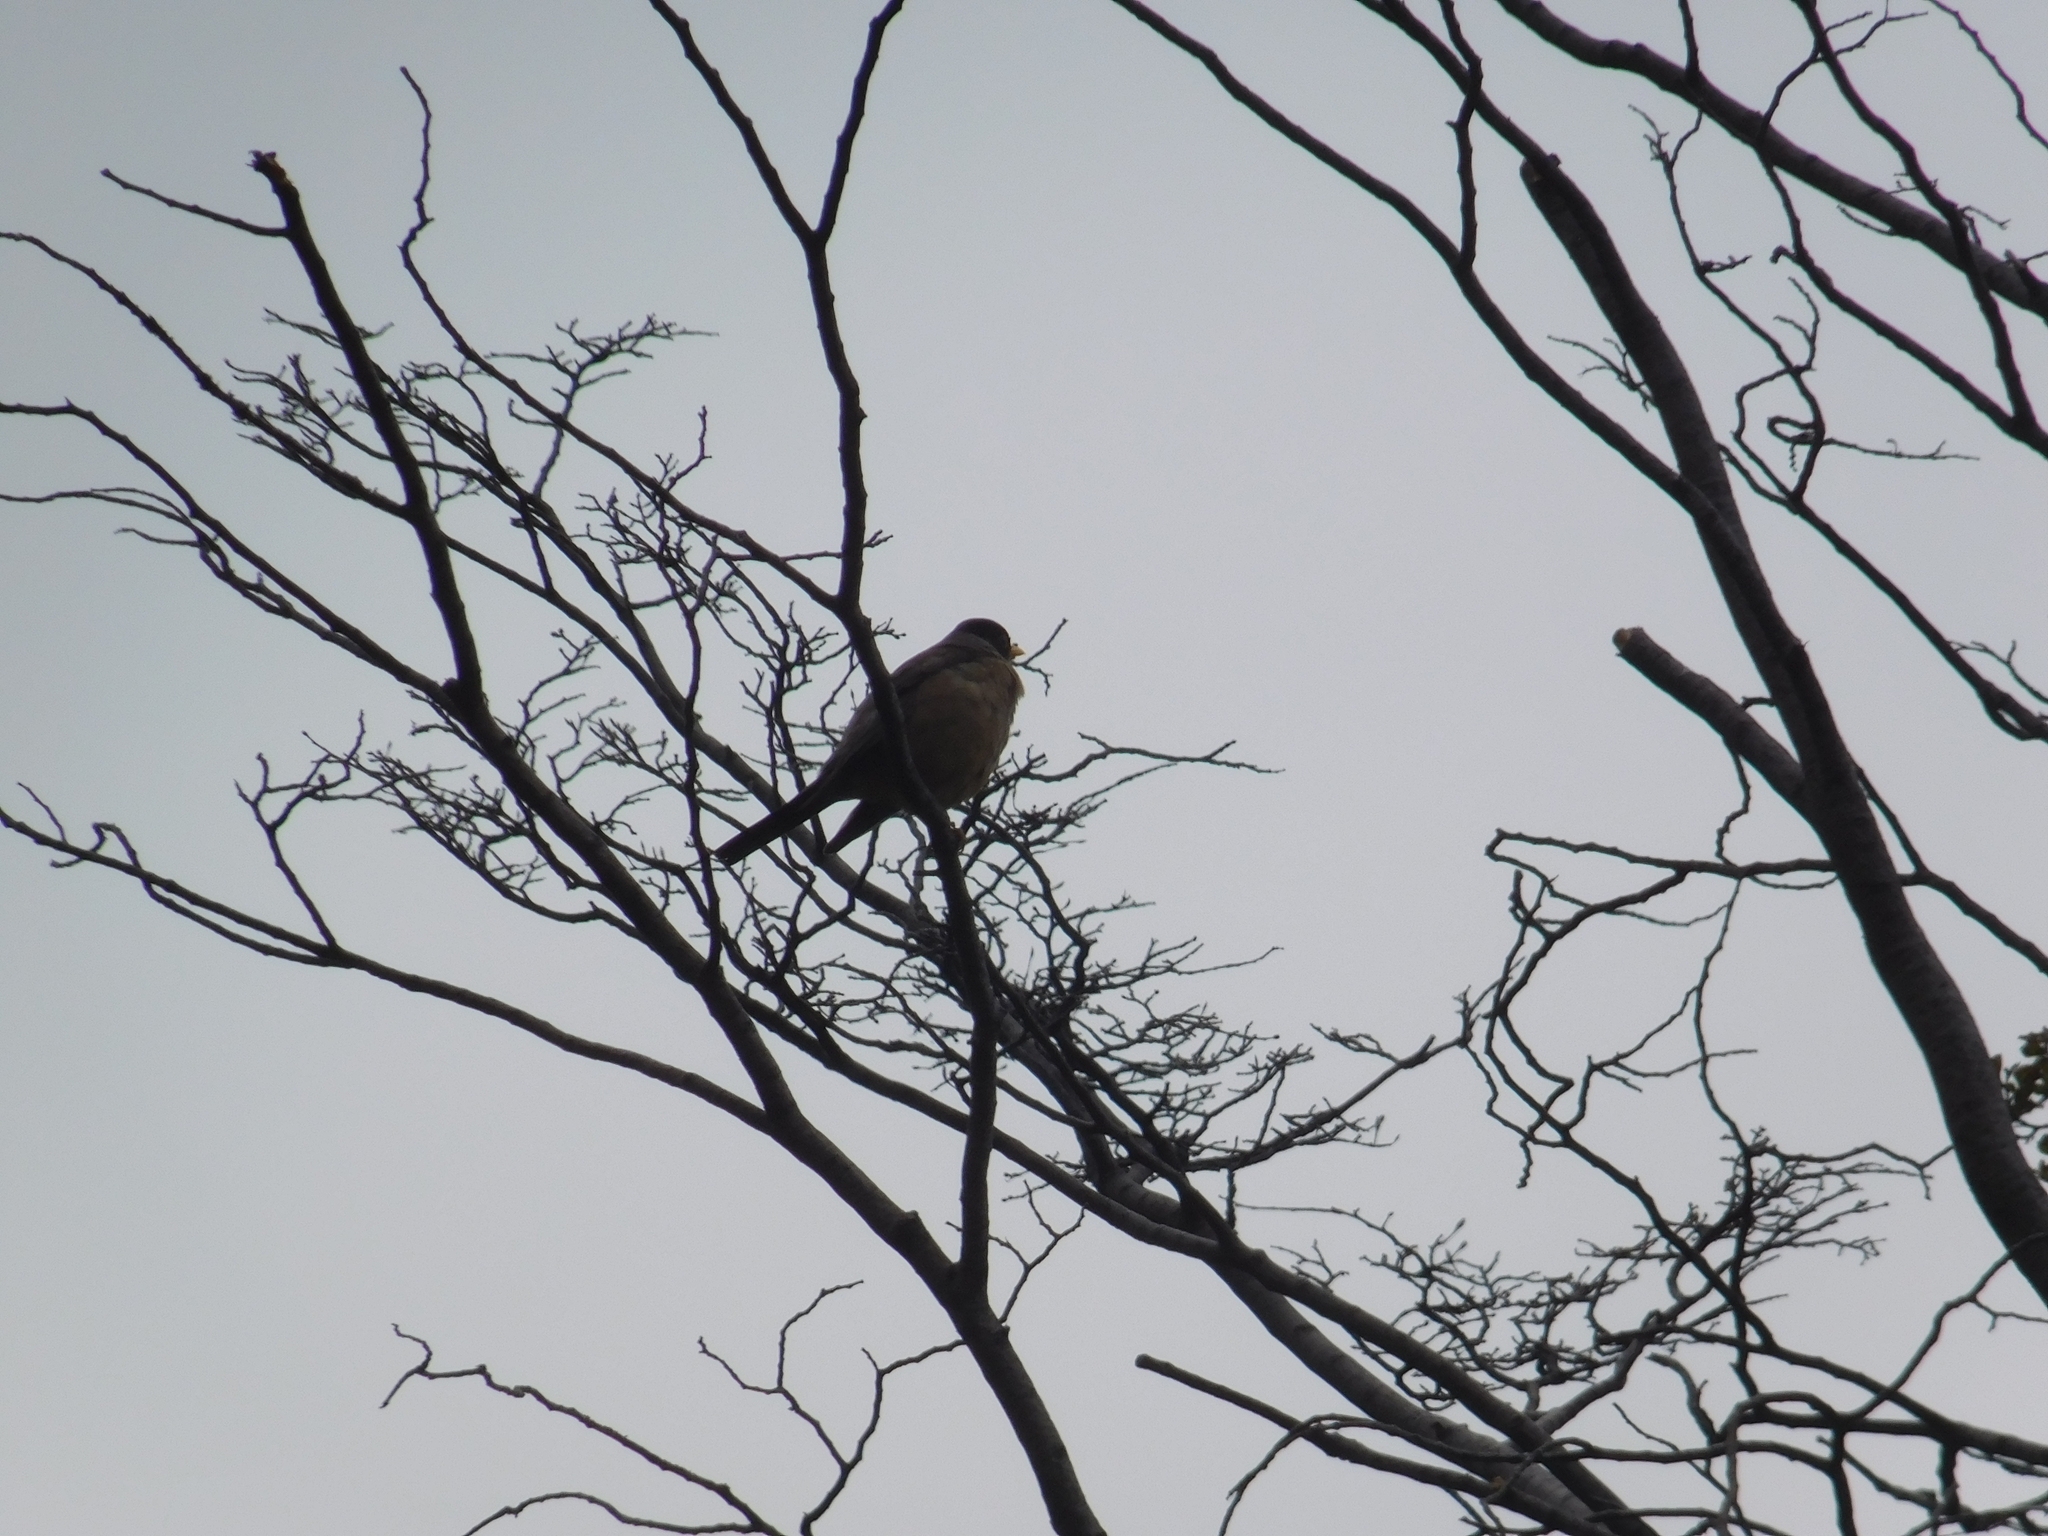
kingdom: Animalia
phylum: Chordata
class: Aves
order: Passeriformes
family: Turdidae
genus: Turdus
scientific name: Turdus falcklandii
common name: Austral thrush
